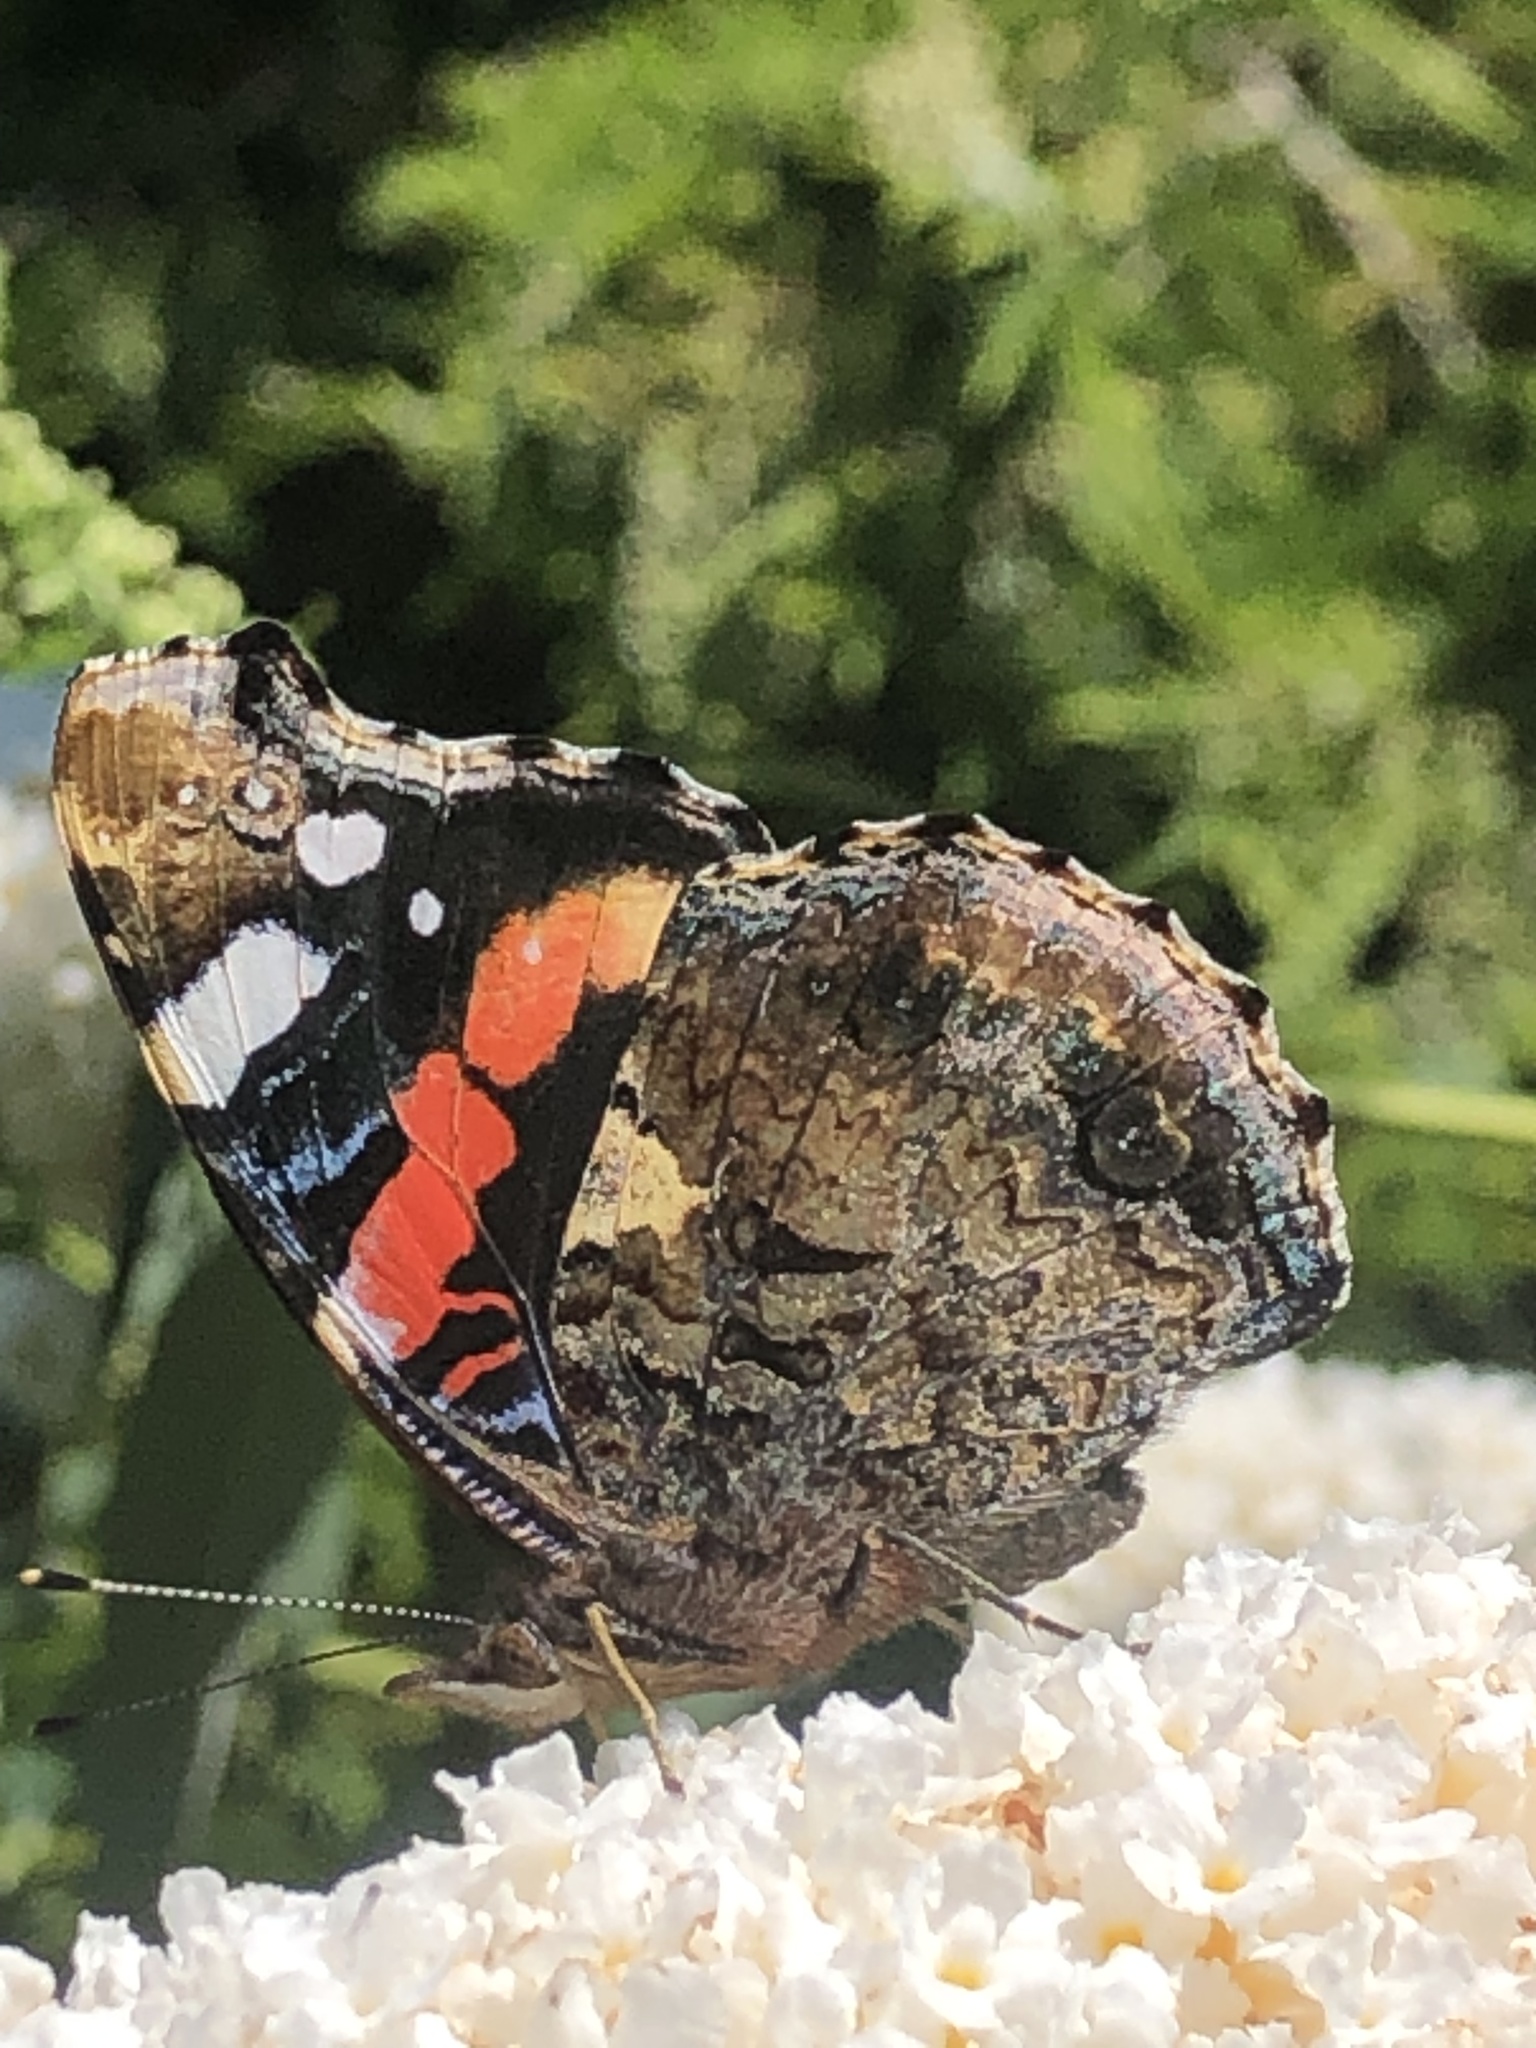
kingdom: Animalia
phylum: Arthropoda
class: Insecta
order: Lepidoptera
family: Nymphalidae
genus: Vanessa
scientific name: Vanessa atalanta
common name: Red admiral
